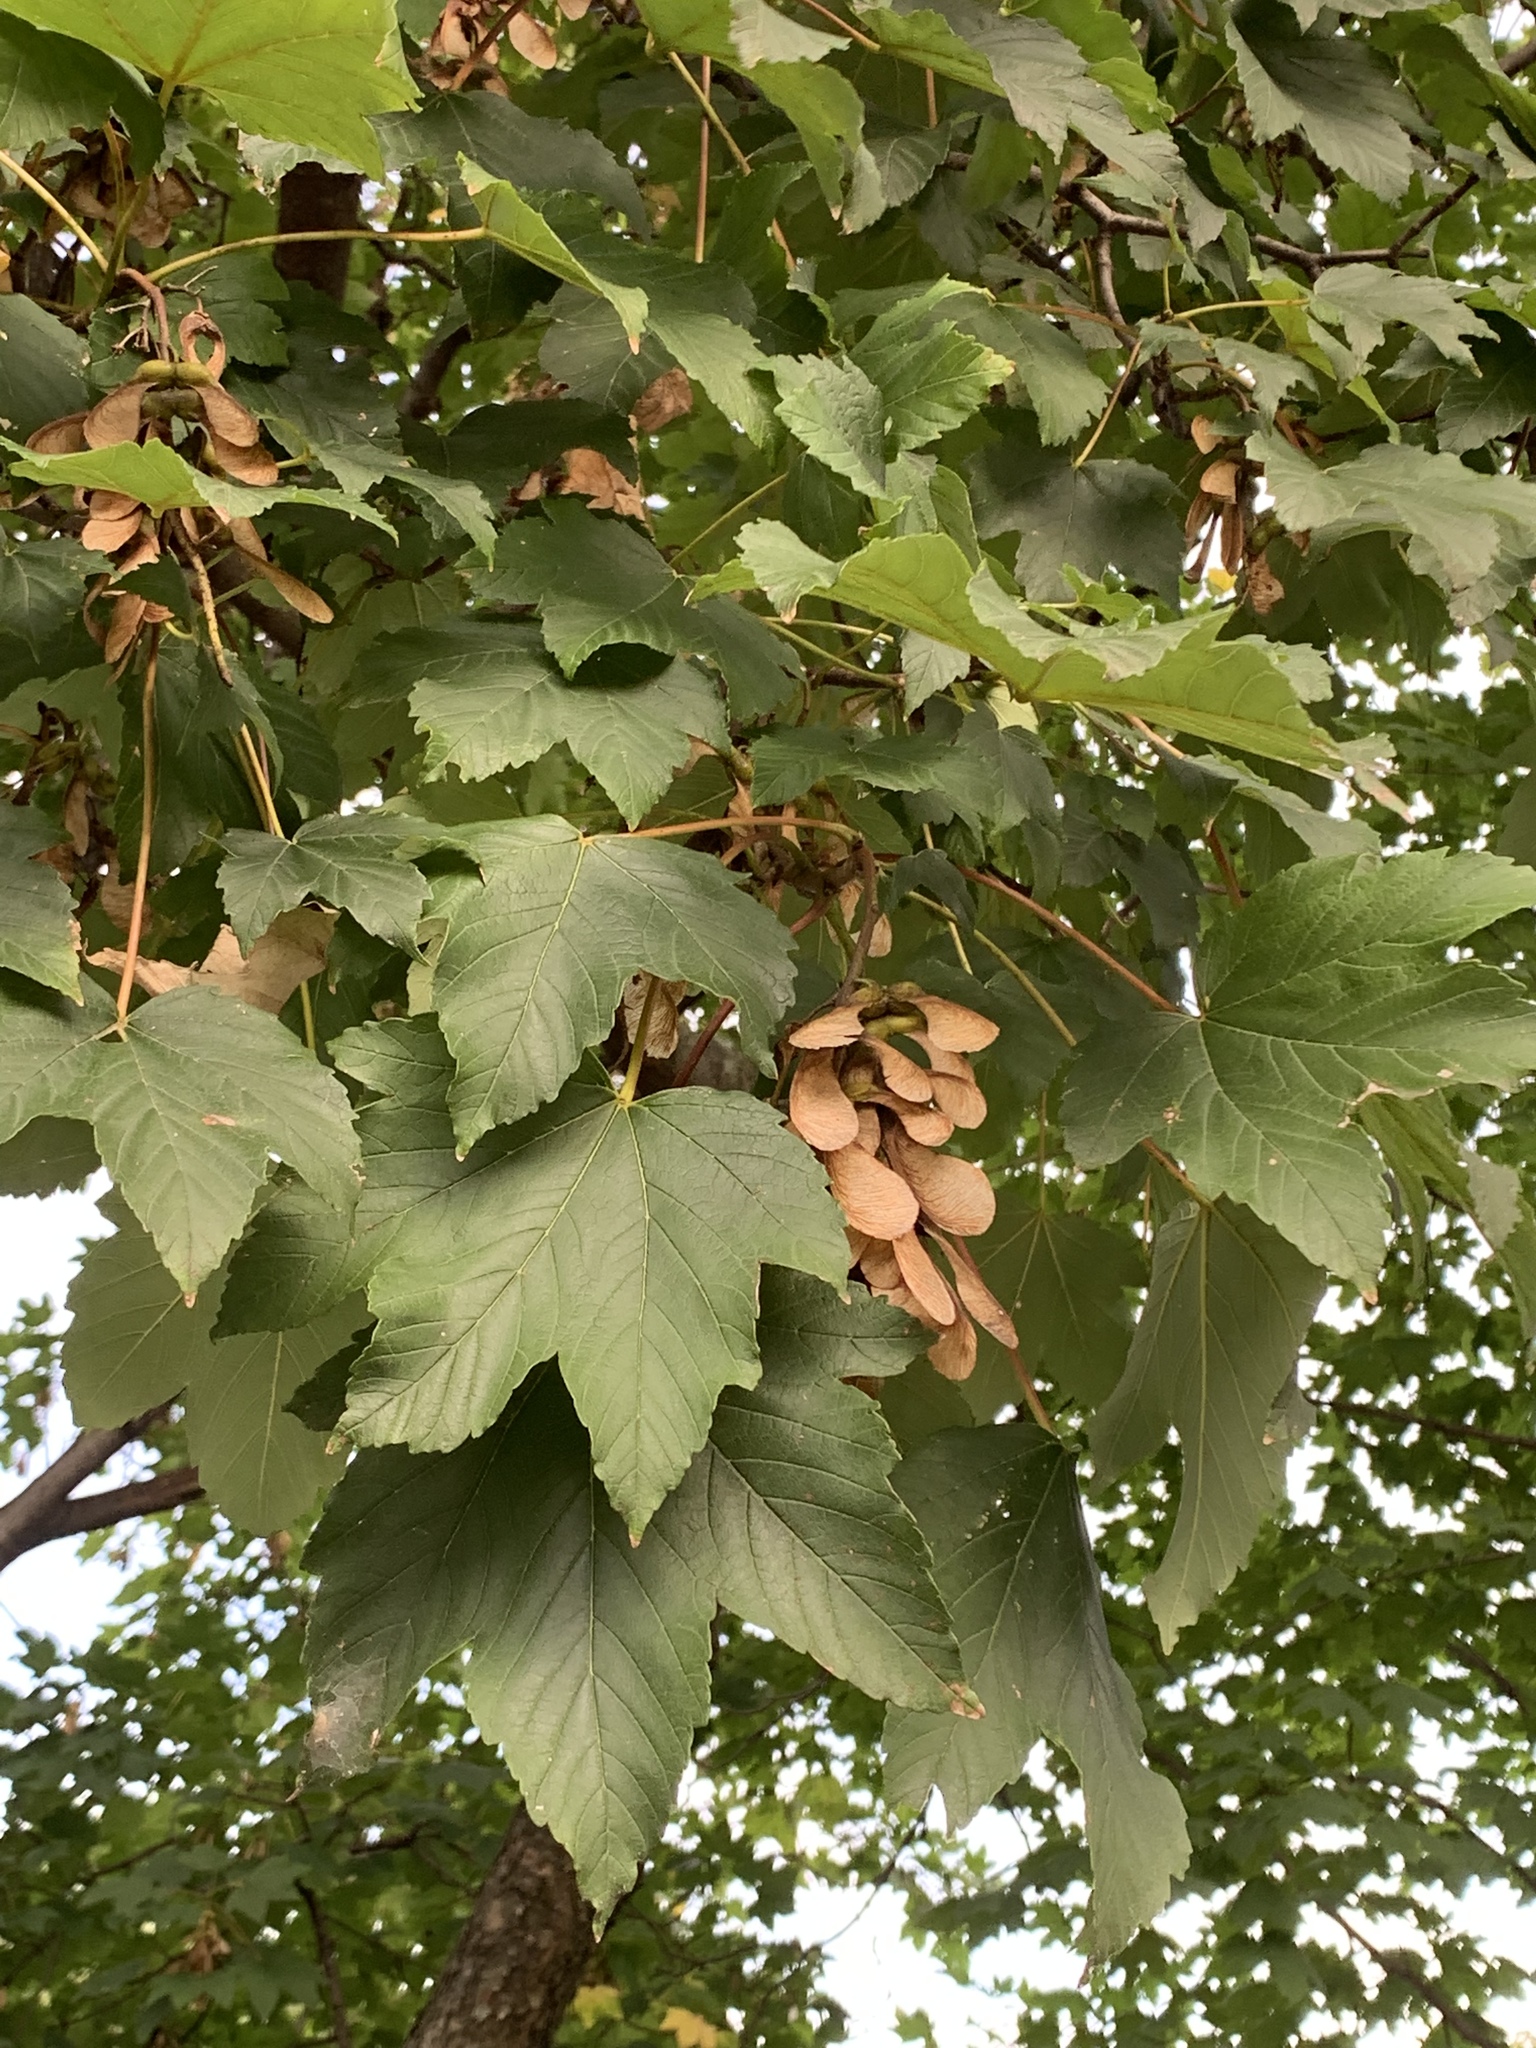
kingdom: Plantae
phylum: Tracheophyta
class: Magnoliopsida
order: Sapindales
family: Sapindaceae
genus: Acer
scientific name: Acer pseudoplatanus
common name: Sycamore
